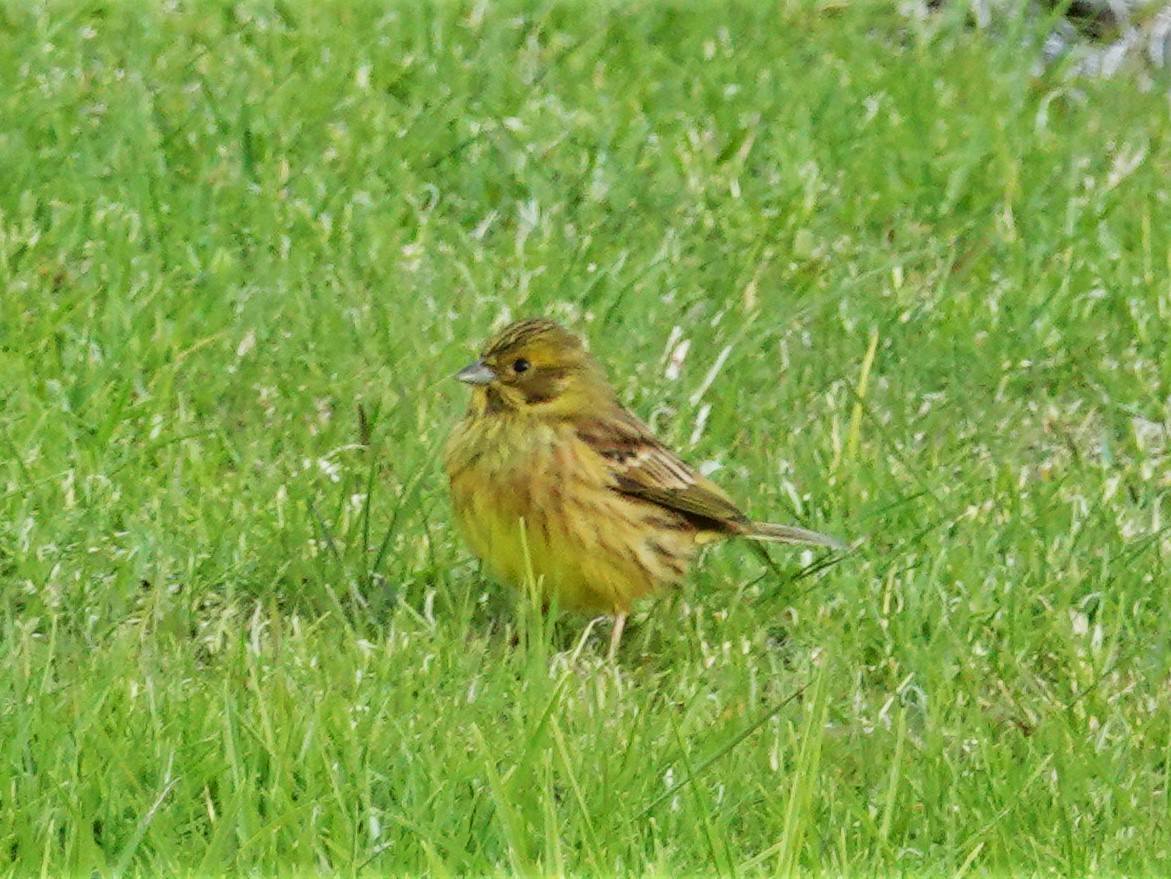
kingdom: Animalia
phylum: Chordata
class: Aves
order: Passeriformes
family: Emberizidae
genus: Emberiza
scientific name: Emberiza citrinella
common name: Yellowhammer
